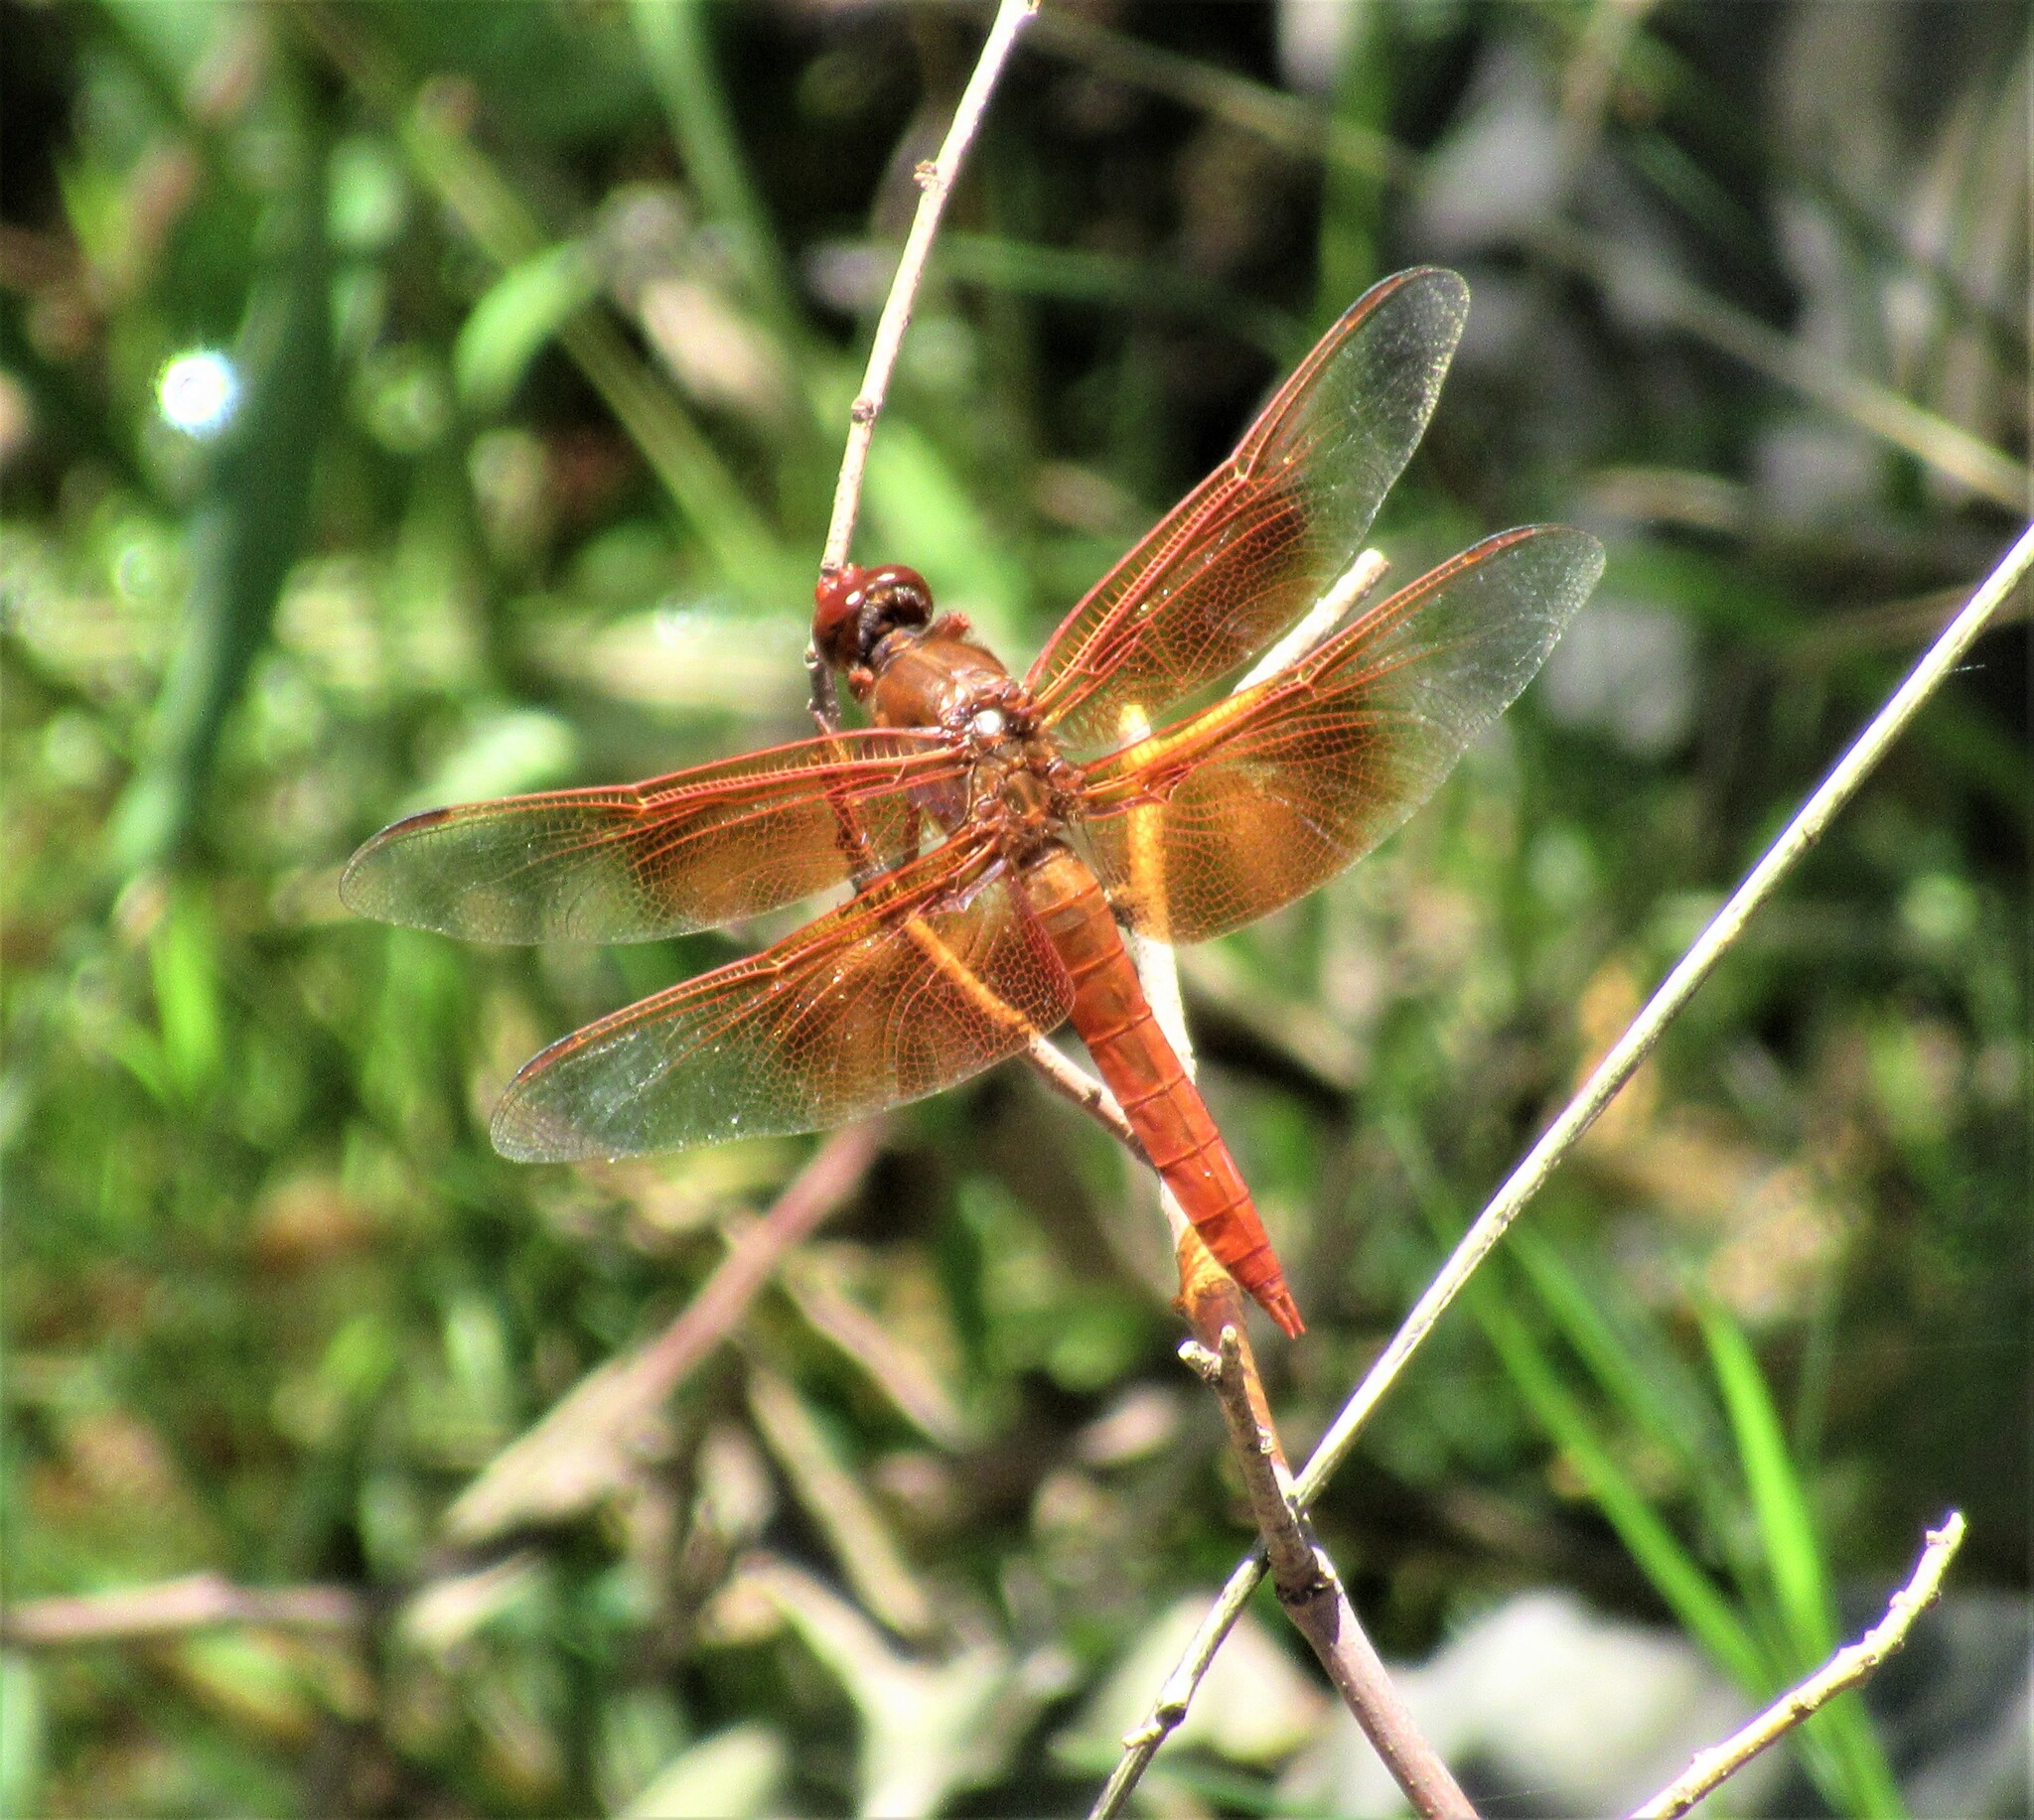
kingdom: Animalia
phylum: Arthropoda
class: Insecta
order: Odonata
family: Libellulidae
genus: Libellula
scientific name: Libellula saturata
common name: Flame skimmer
